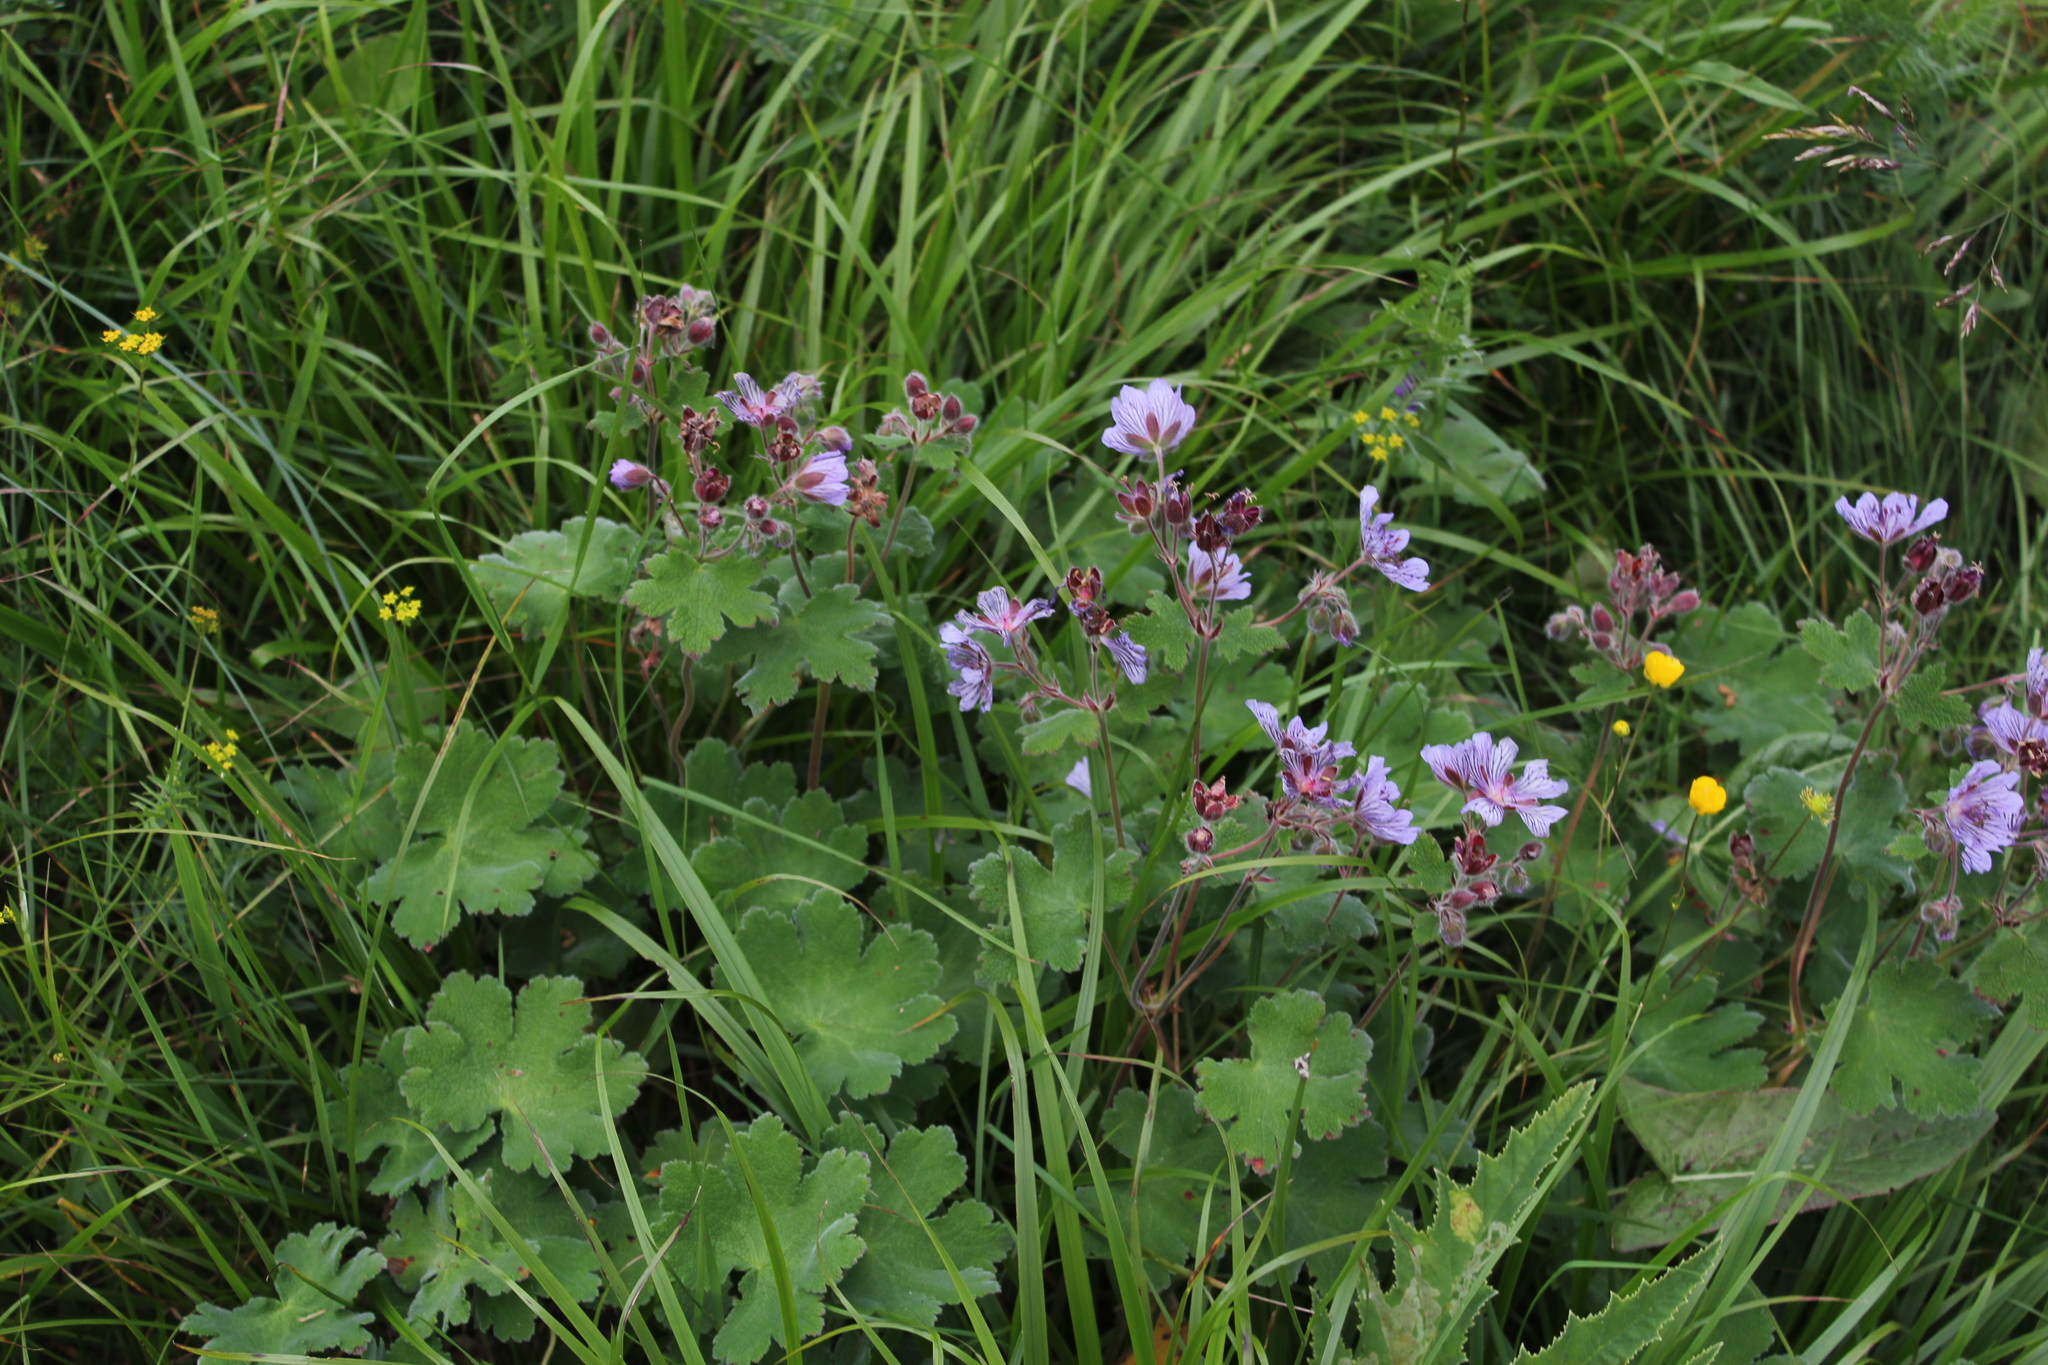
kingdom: Plantae
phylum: Tracheophyta
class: Magnoliopsida
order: Geraniales
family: Geraniaceae
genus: Geranium
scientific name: Geranium renardii
